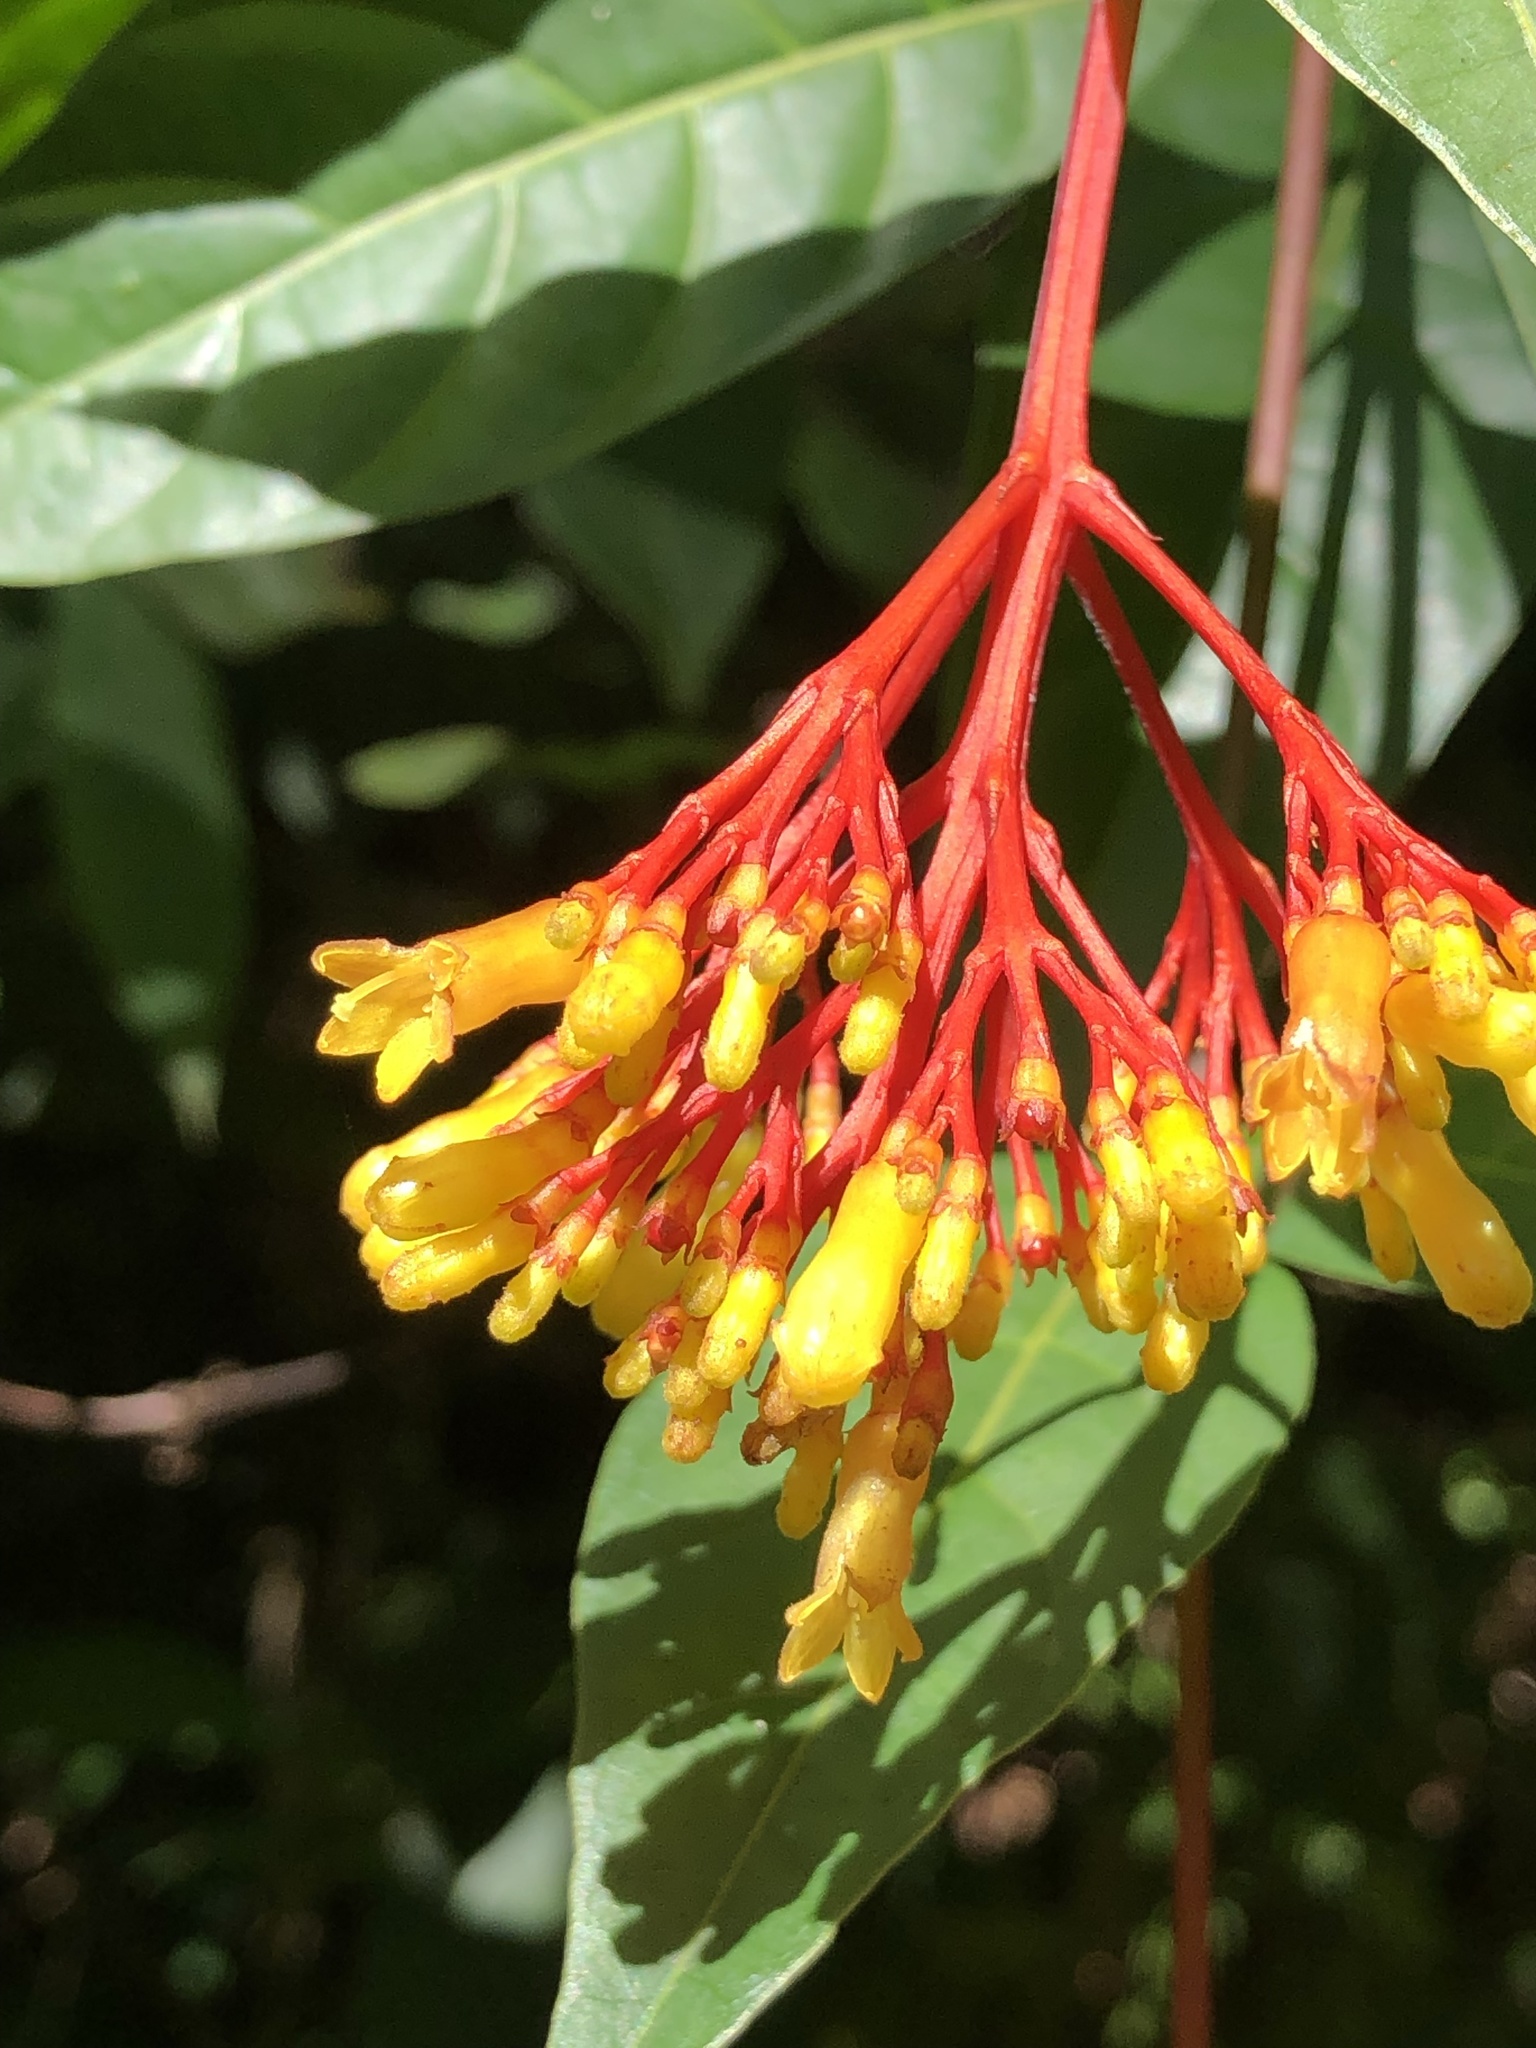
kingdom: Plantae
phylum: Tracheophyta
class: Magnoliopsida
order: Gentianales
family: Rubiaceae
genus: Palicourea
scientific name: Palicourea croceoides
